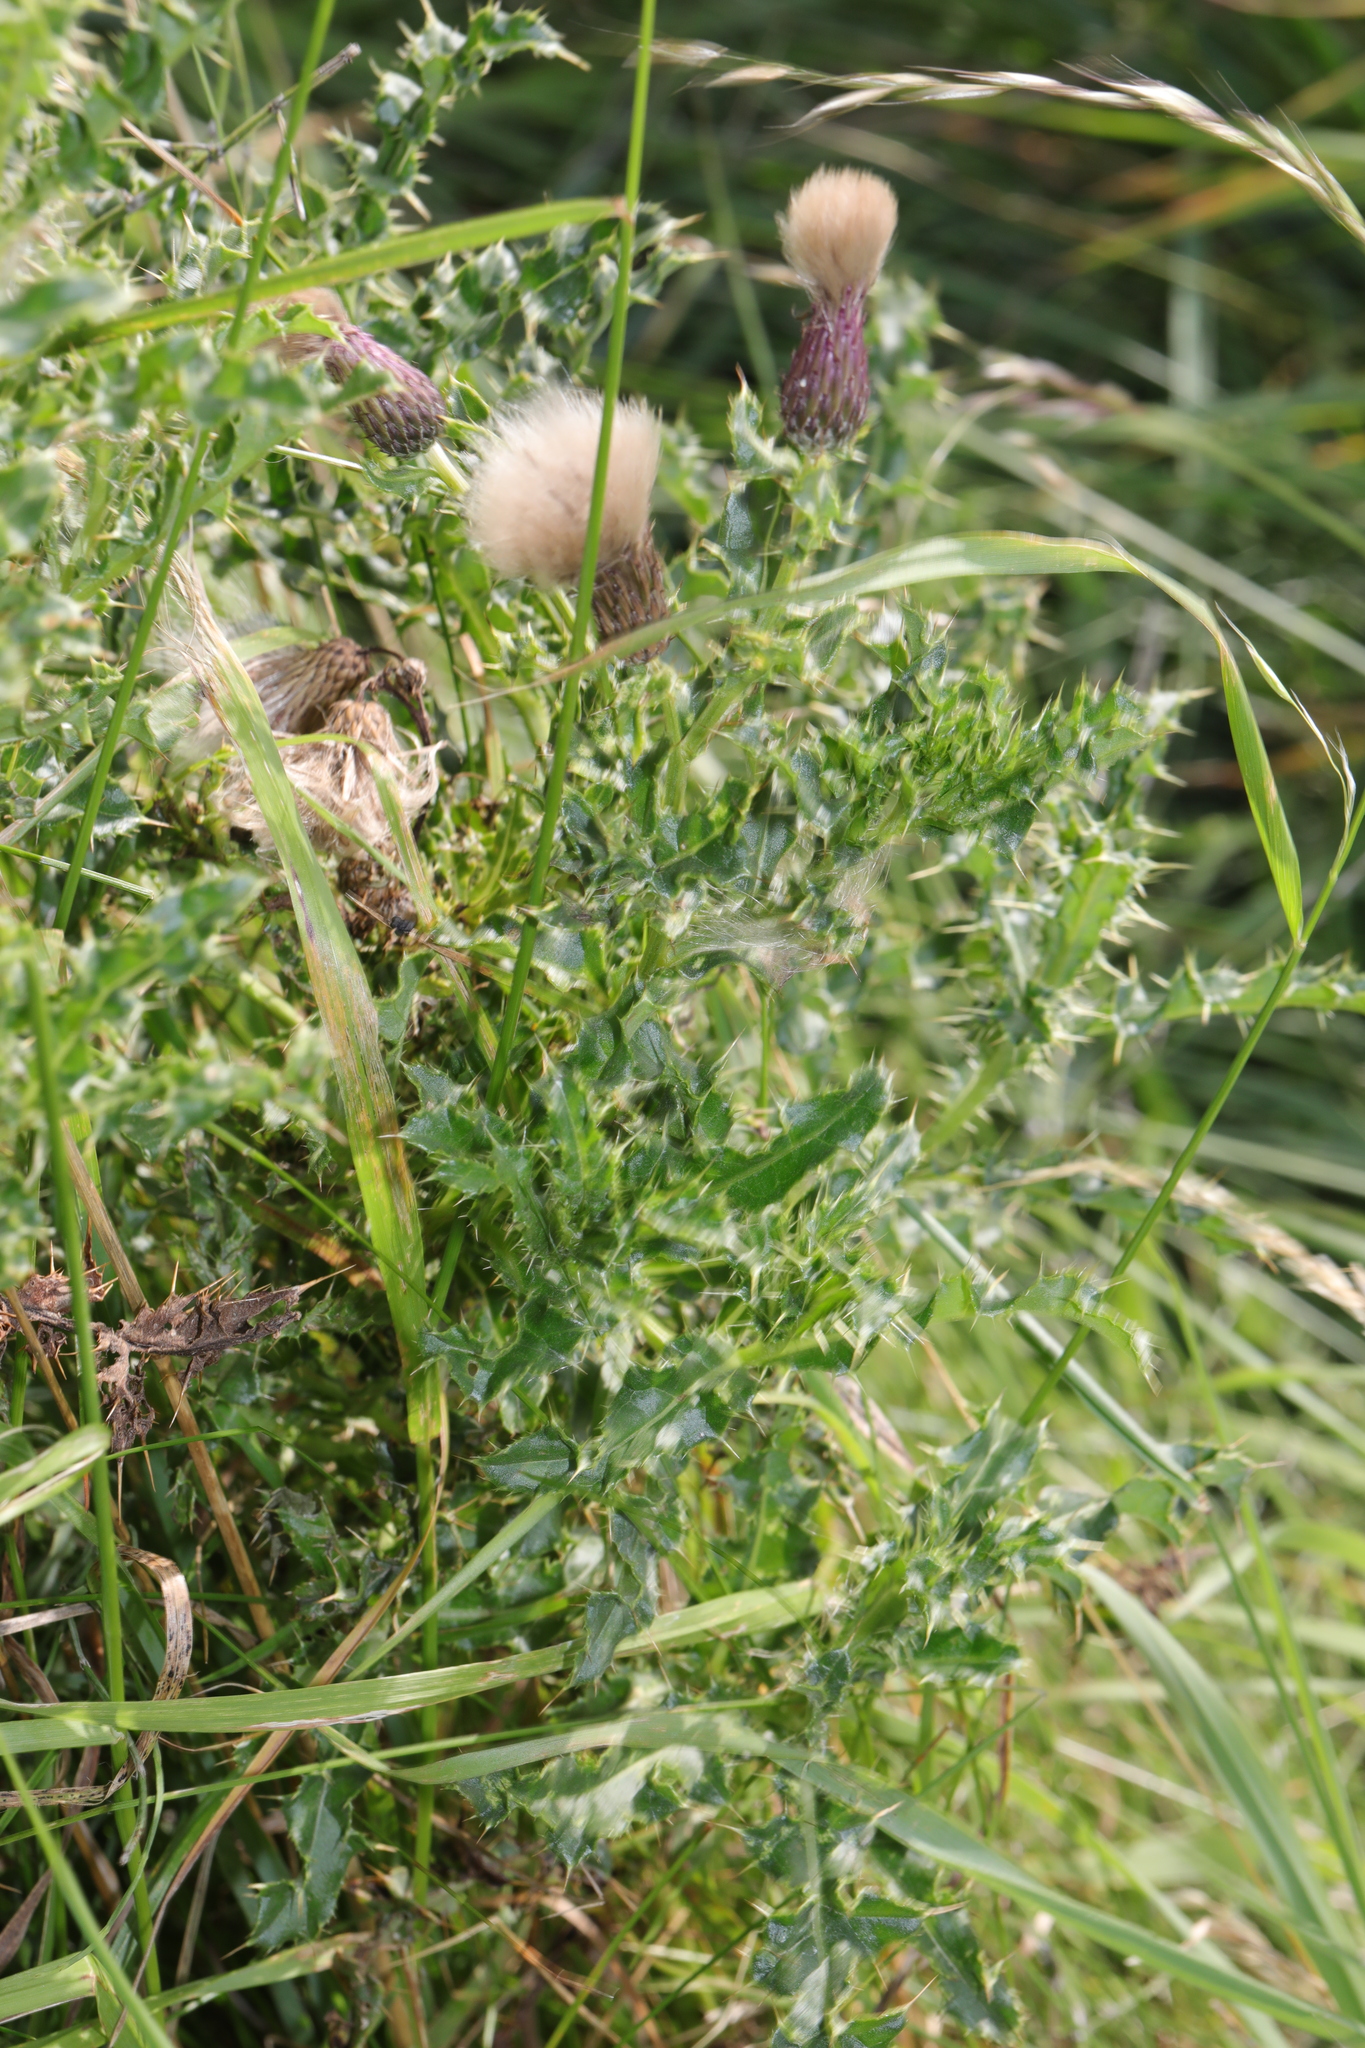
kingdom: Plantae
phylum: Tracheophyta
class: Magnoliopsida
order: Asterales
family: Asteraceae
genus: Cirsium
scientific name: Cirsium arvense
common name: Creeping thistle
